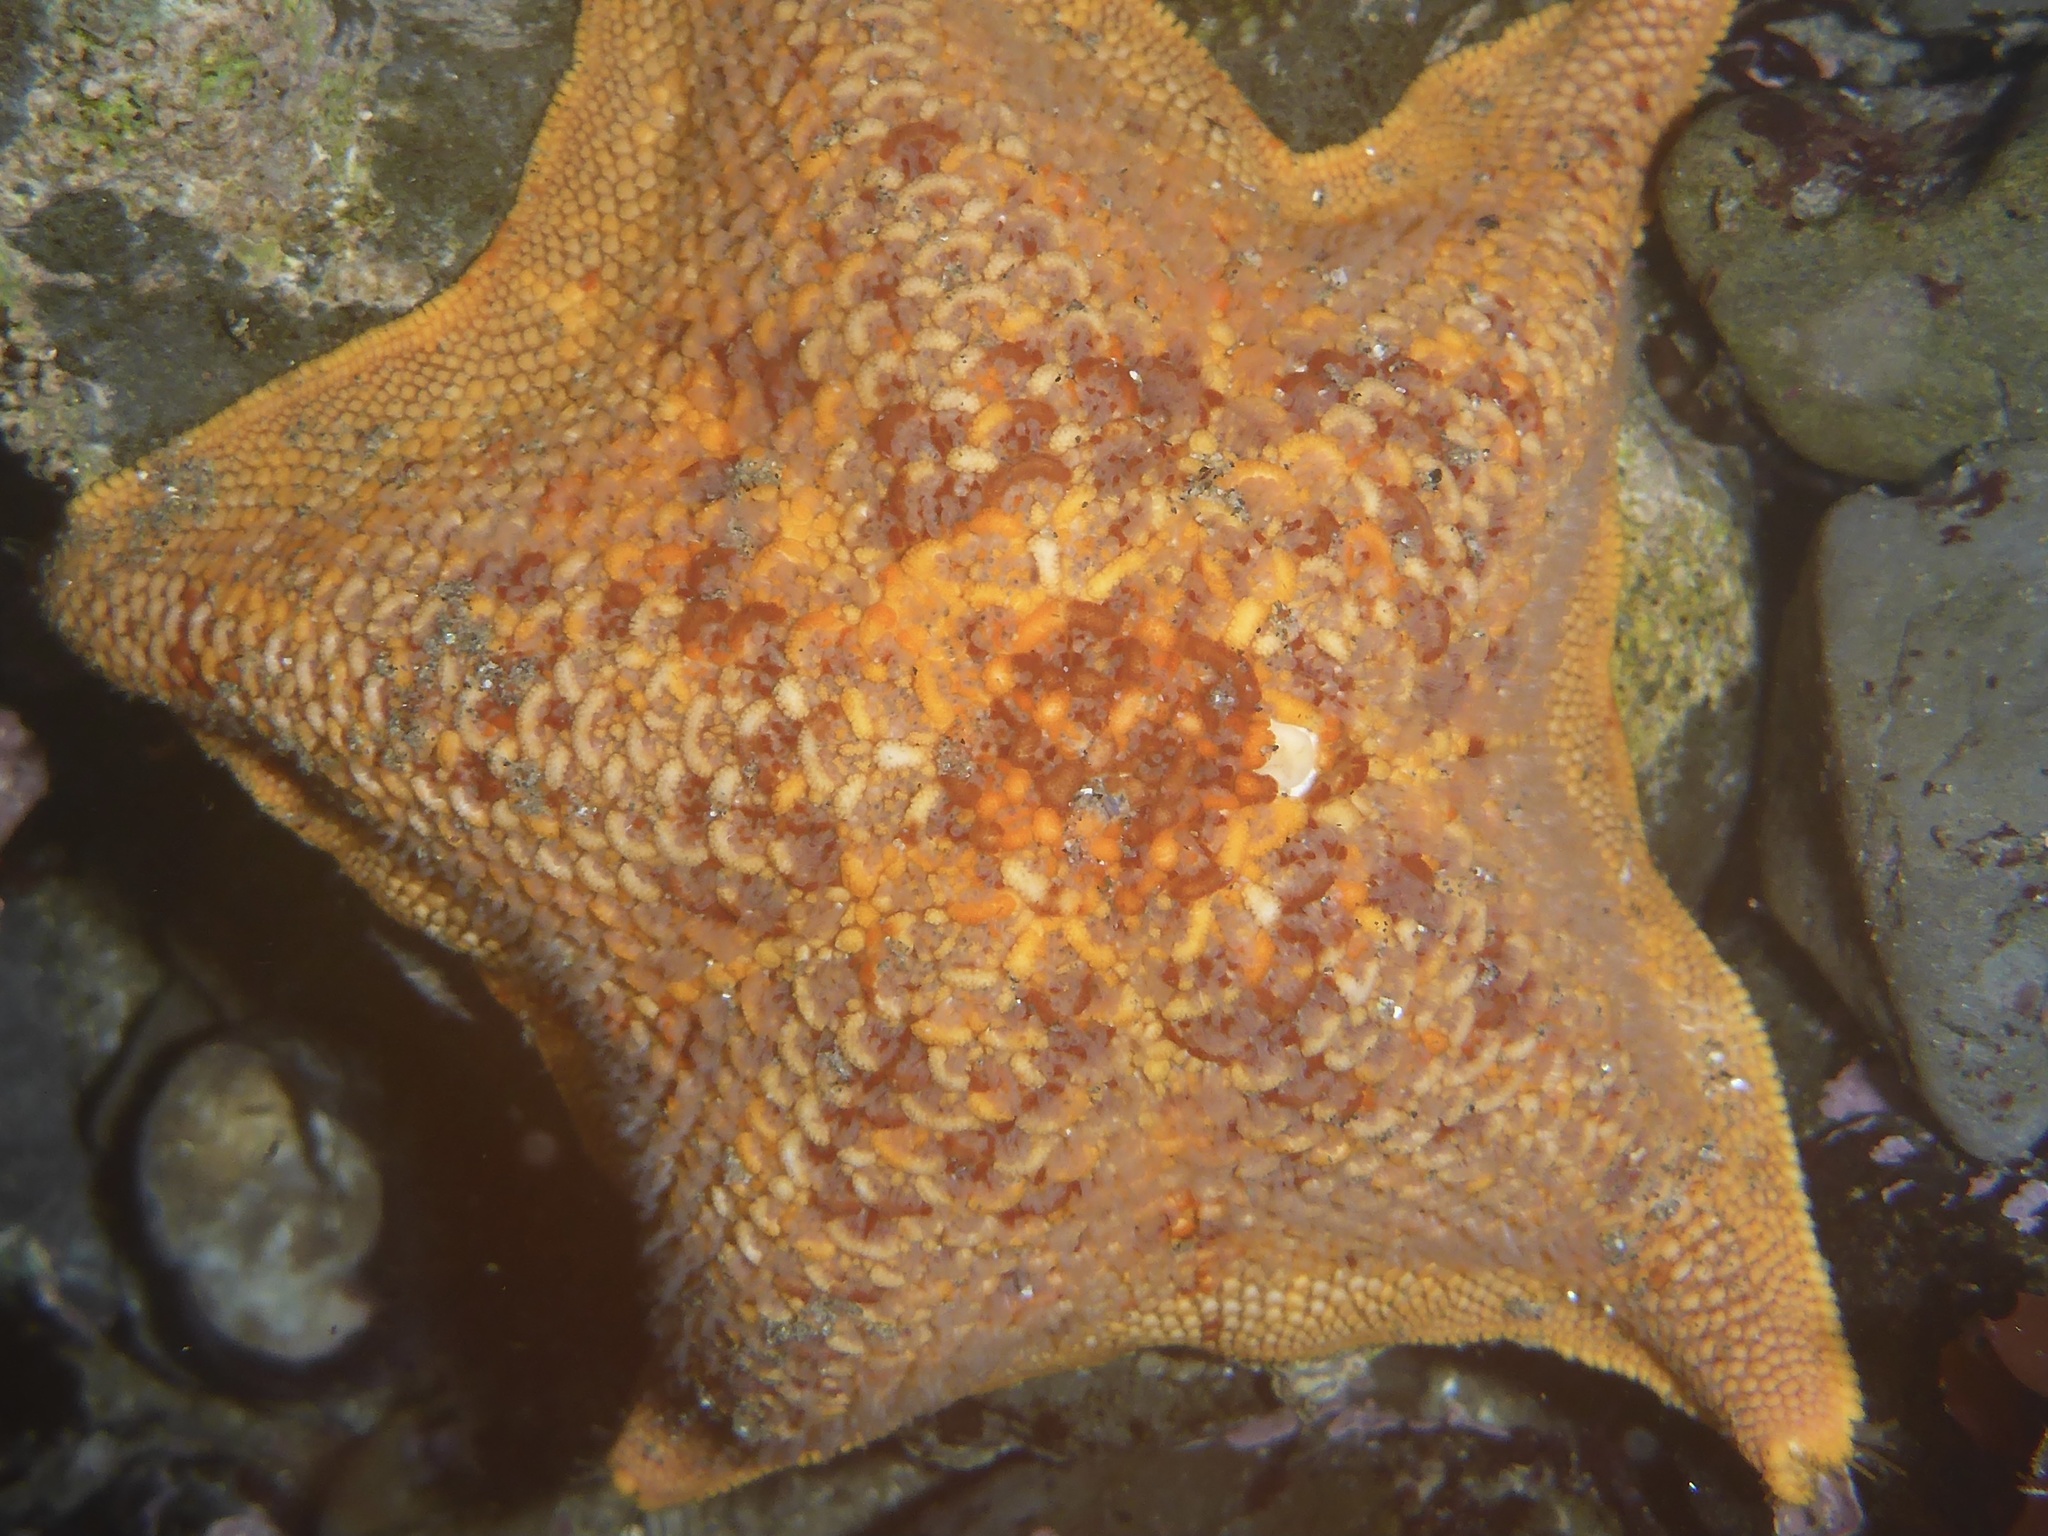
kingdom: Animalia
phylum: Echinodermata
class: Asteroidea
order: Valvatida
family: Asterinidae
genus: Patiria
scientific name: Patiria miniata
